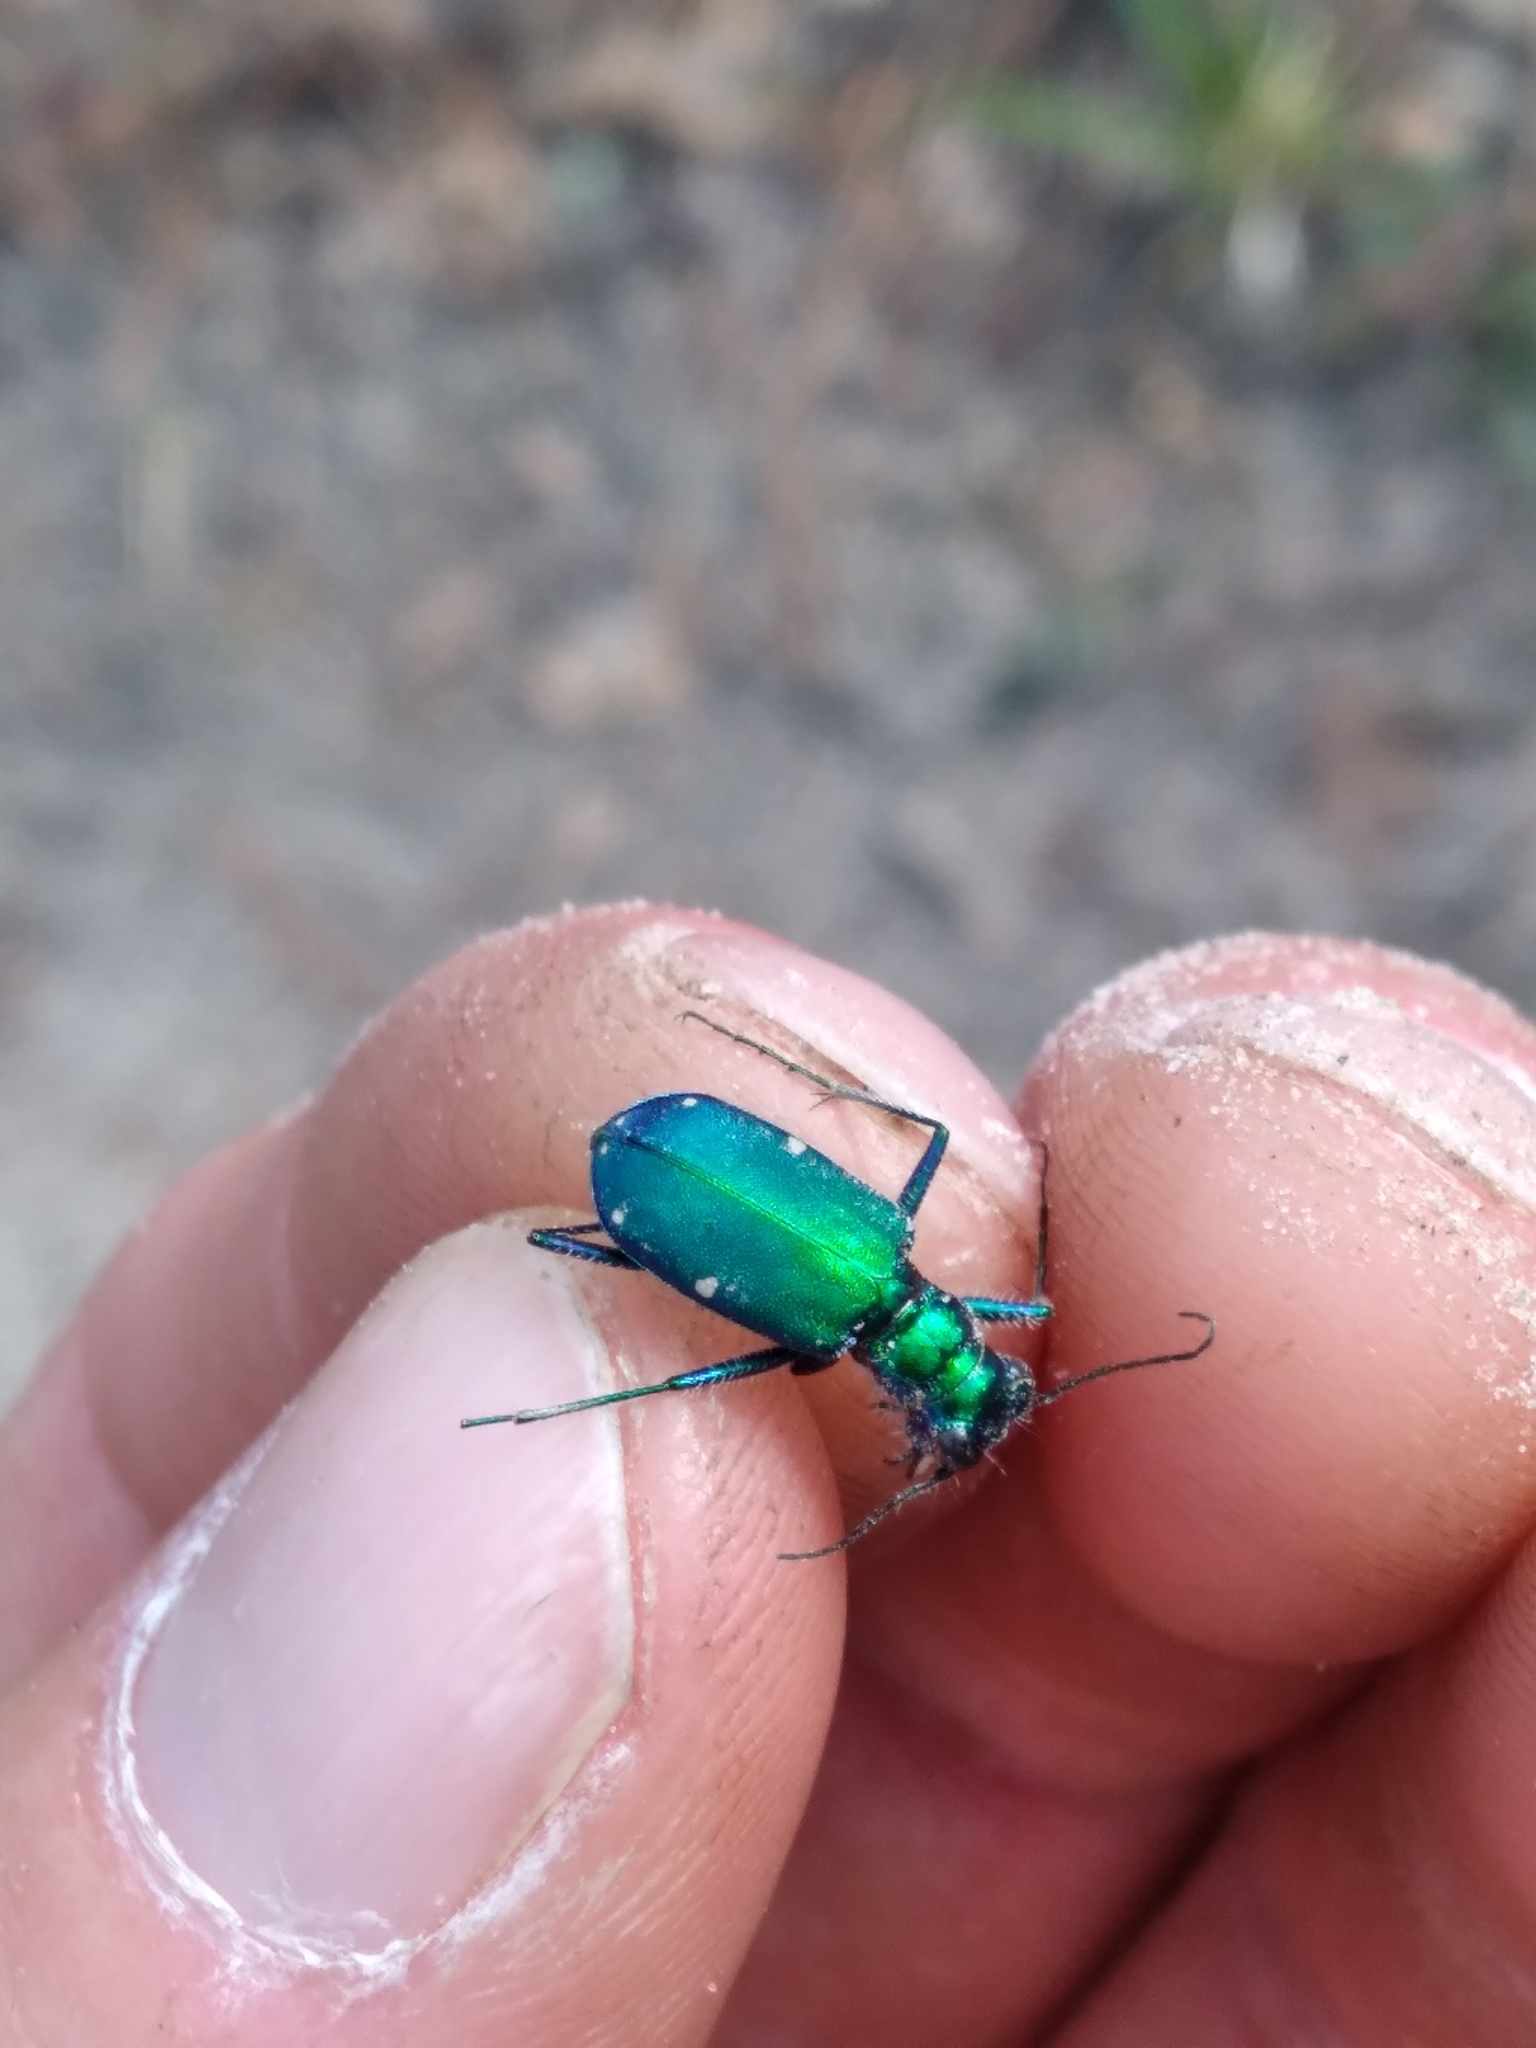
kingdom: Animalia
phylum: Arthropoda
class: Insecta
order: Coleoptera
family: Carabidae
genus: Cicindela
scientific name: Cicindela sexguttata
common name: Six-spotted tiger beetle
